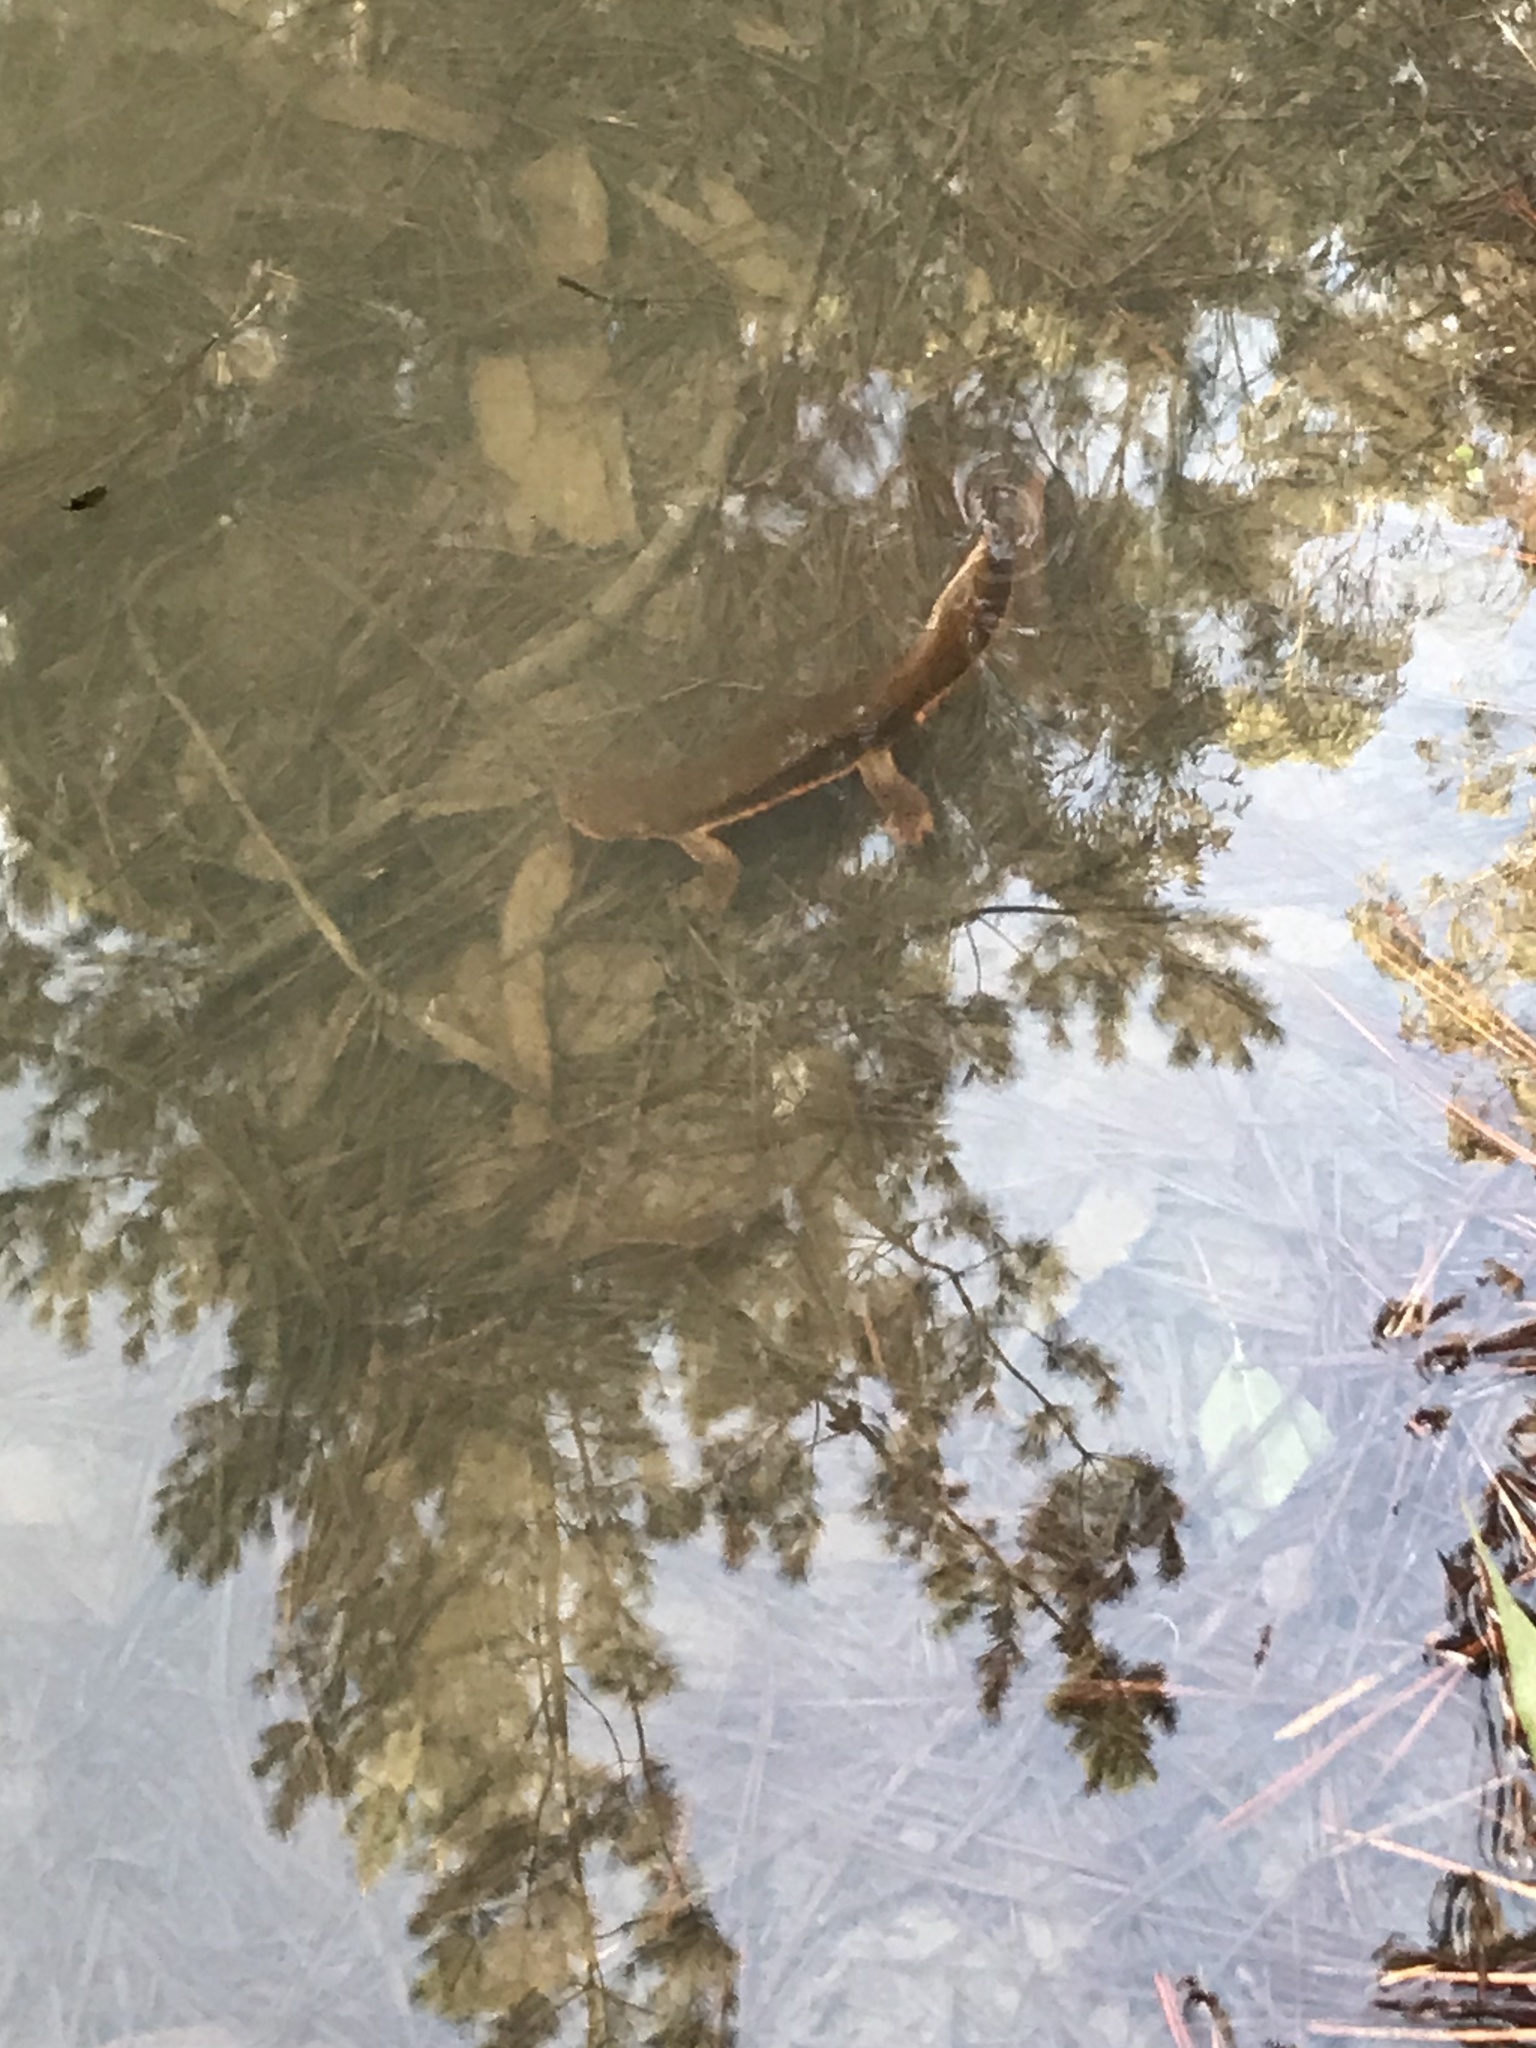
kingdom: Animalia
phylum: Chordata
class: Amphibia
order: Caudata
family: Salamandridae
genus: Taricha
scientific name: Taricha torosa
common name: California newt
